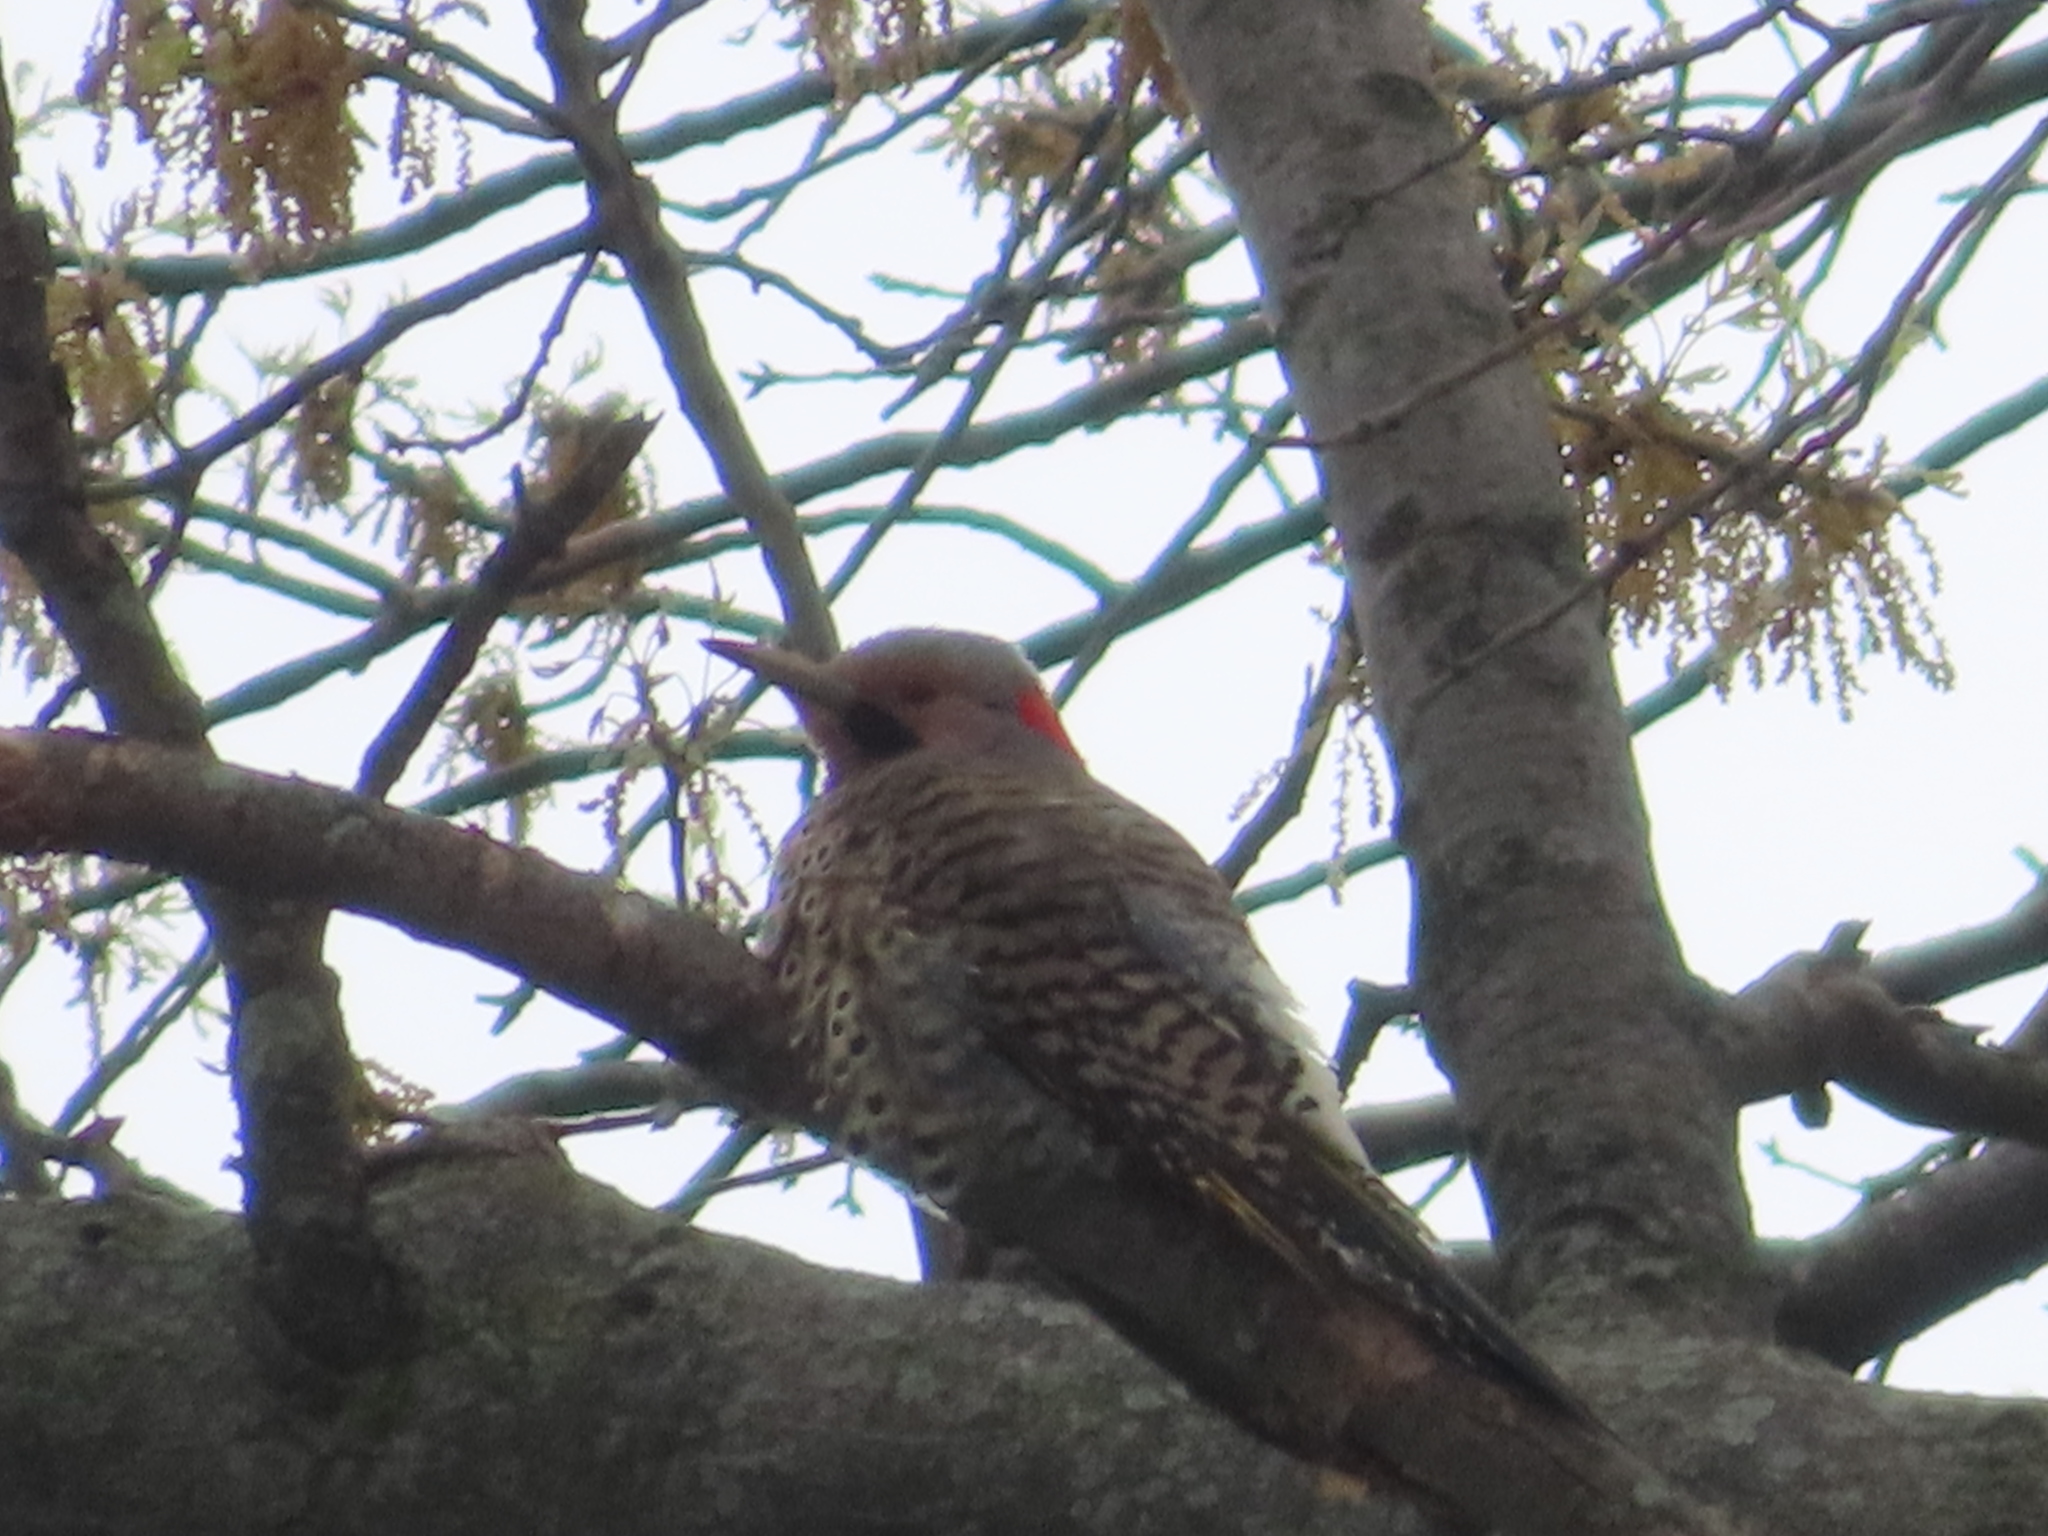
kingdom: Animalia
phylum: Chordata
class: Aves
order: Piciformes
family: Picidae
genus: Colaptes
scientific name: Colaptes auratus
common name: Northern flicker
